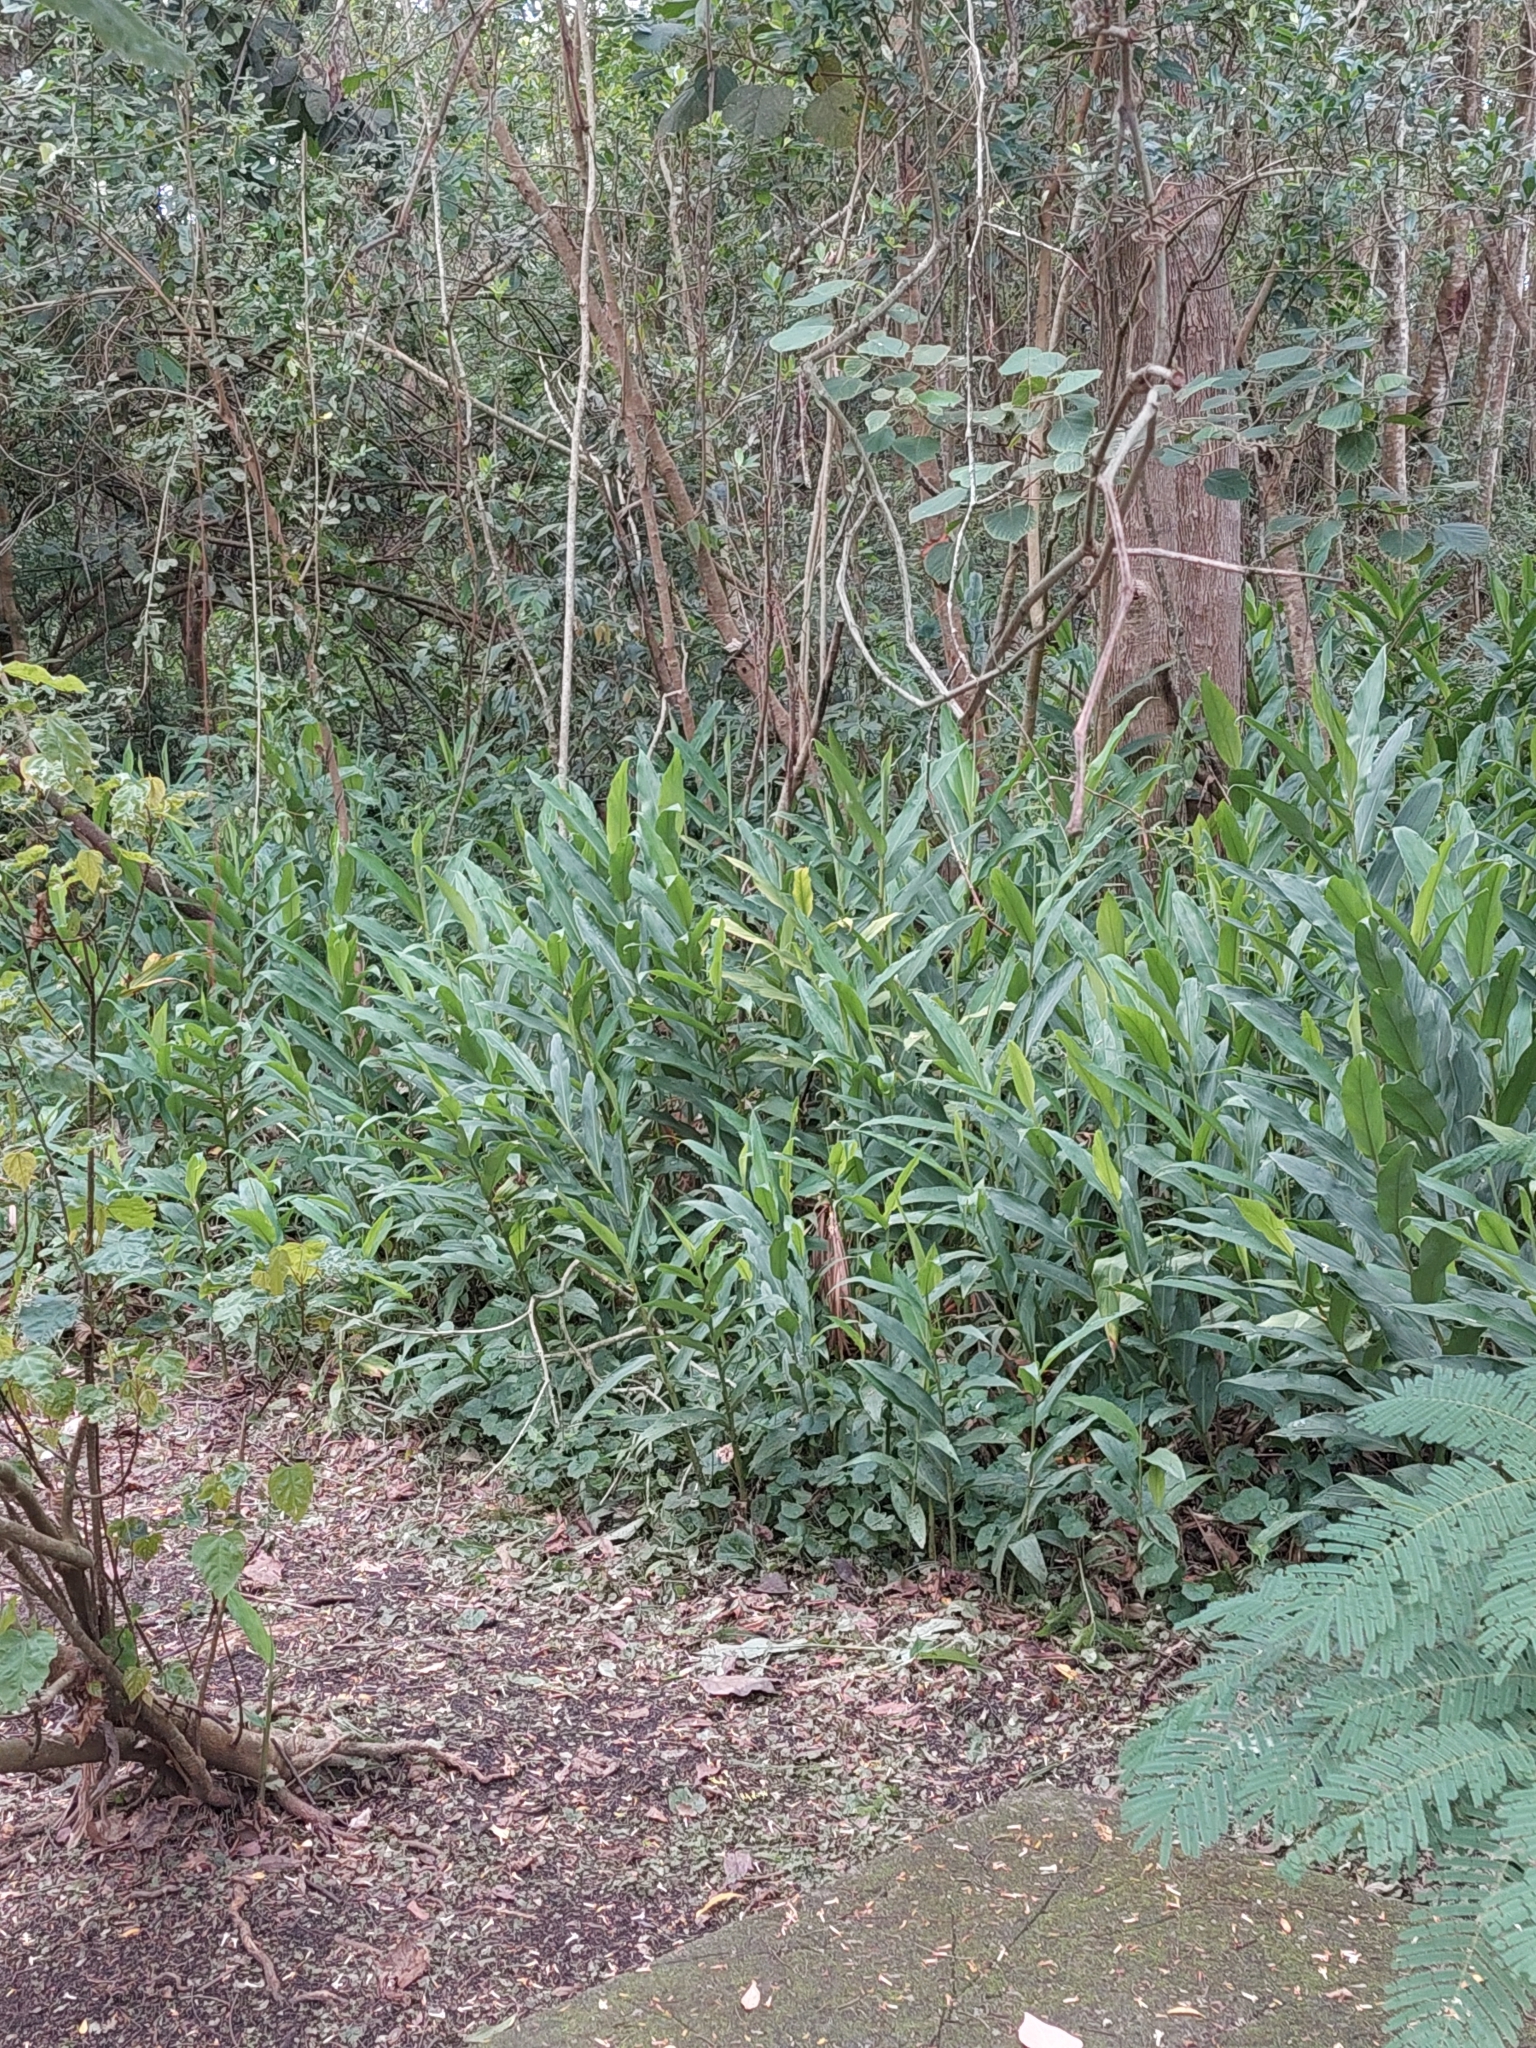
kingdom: Plantae
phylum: Tracheophyta
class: Liliopsida
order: Zingiberales
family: Zingiberaceae
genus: Hedychium
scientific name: Hedychium coronarium
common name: White garland-lily
